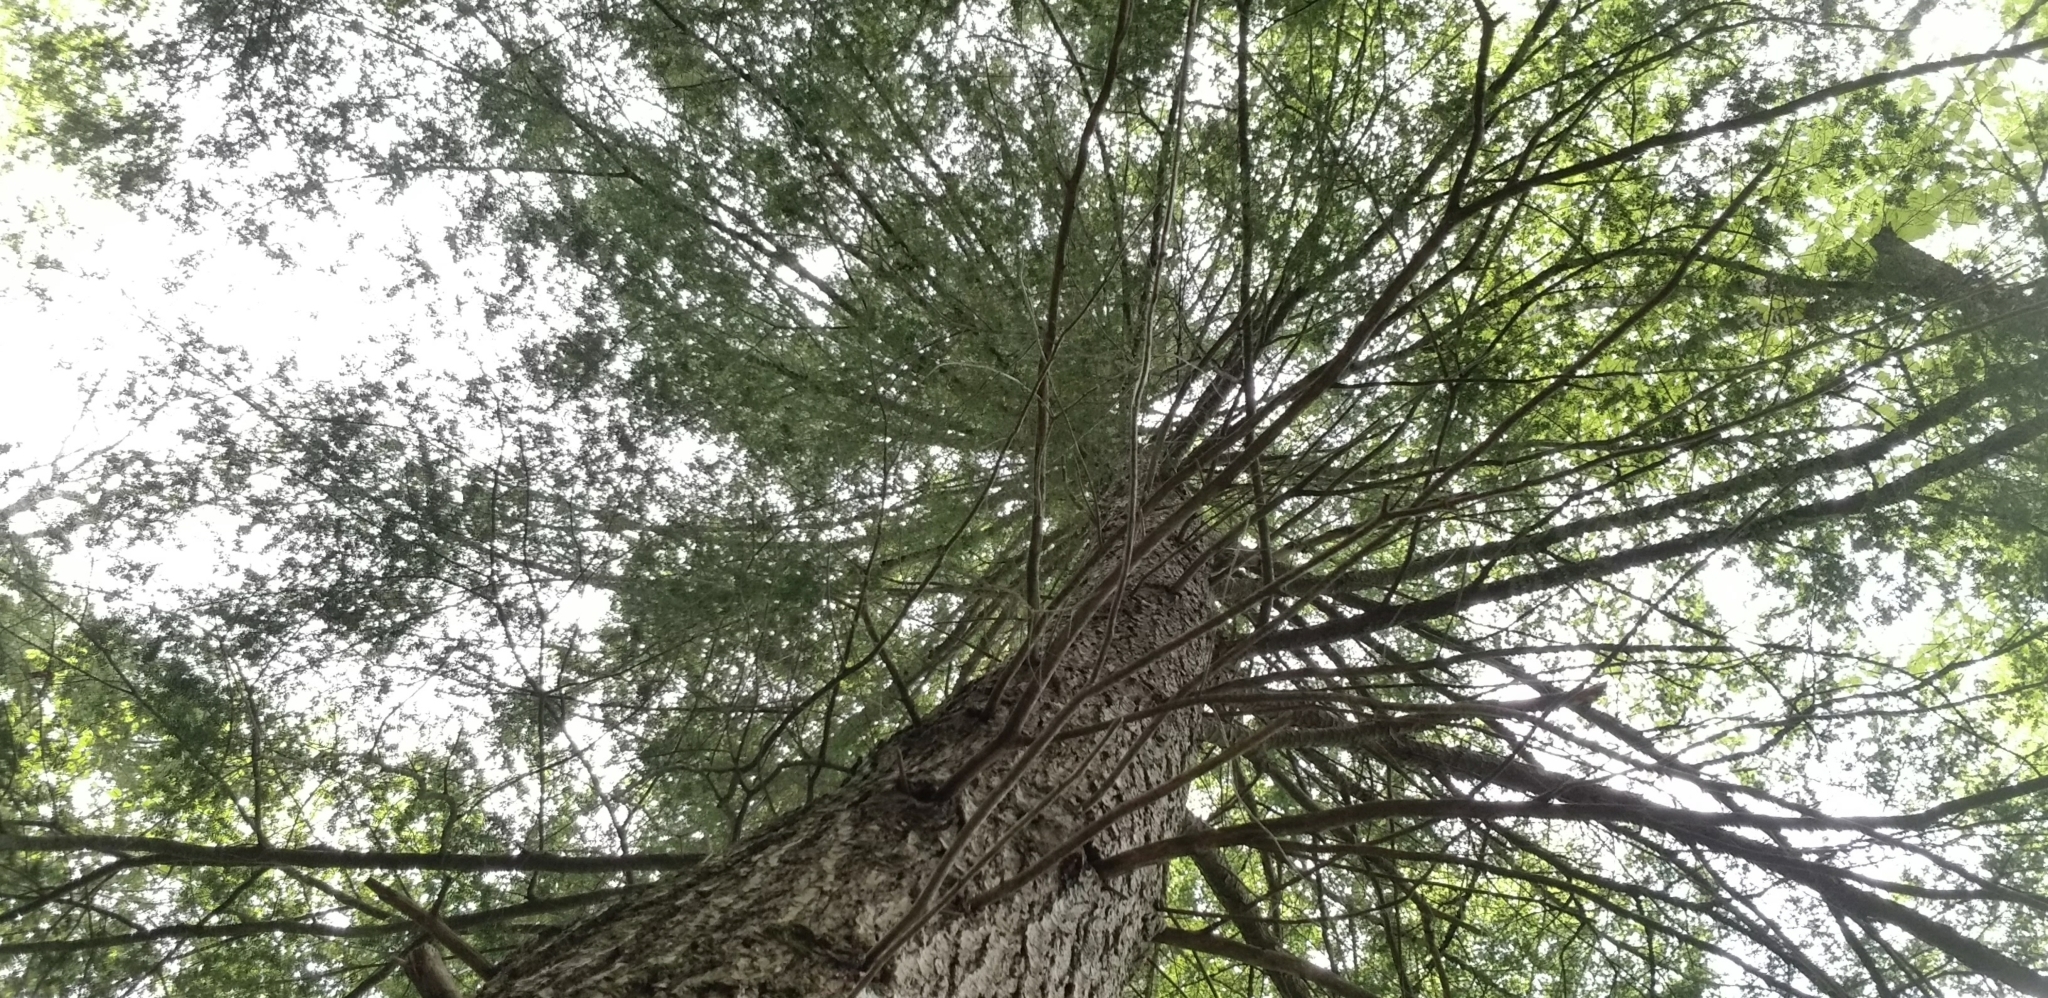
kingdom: Plantae
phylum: Tracheophyta
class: Pinopsida
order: Pinales
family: Pinaceae
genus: Tsuga
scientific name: Tsuga canadensis
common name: Eastern hemlock
